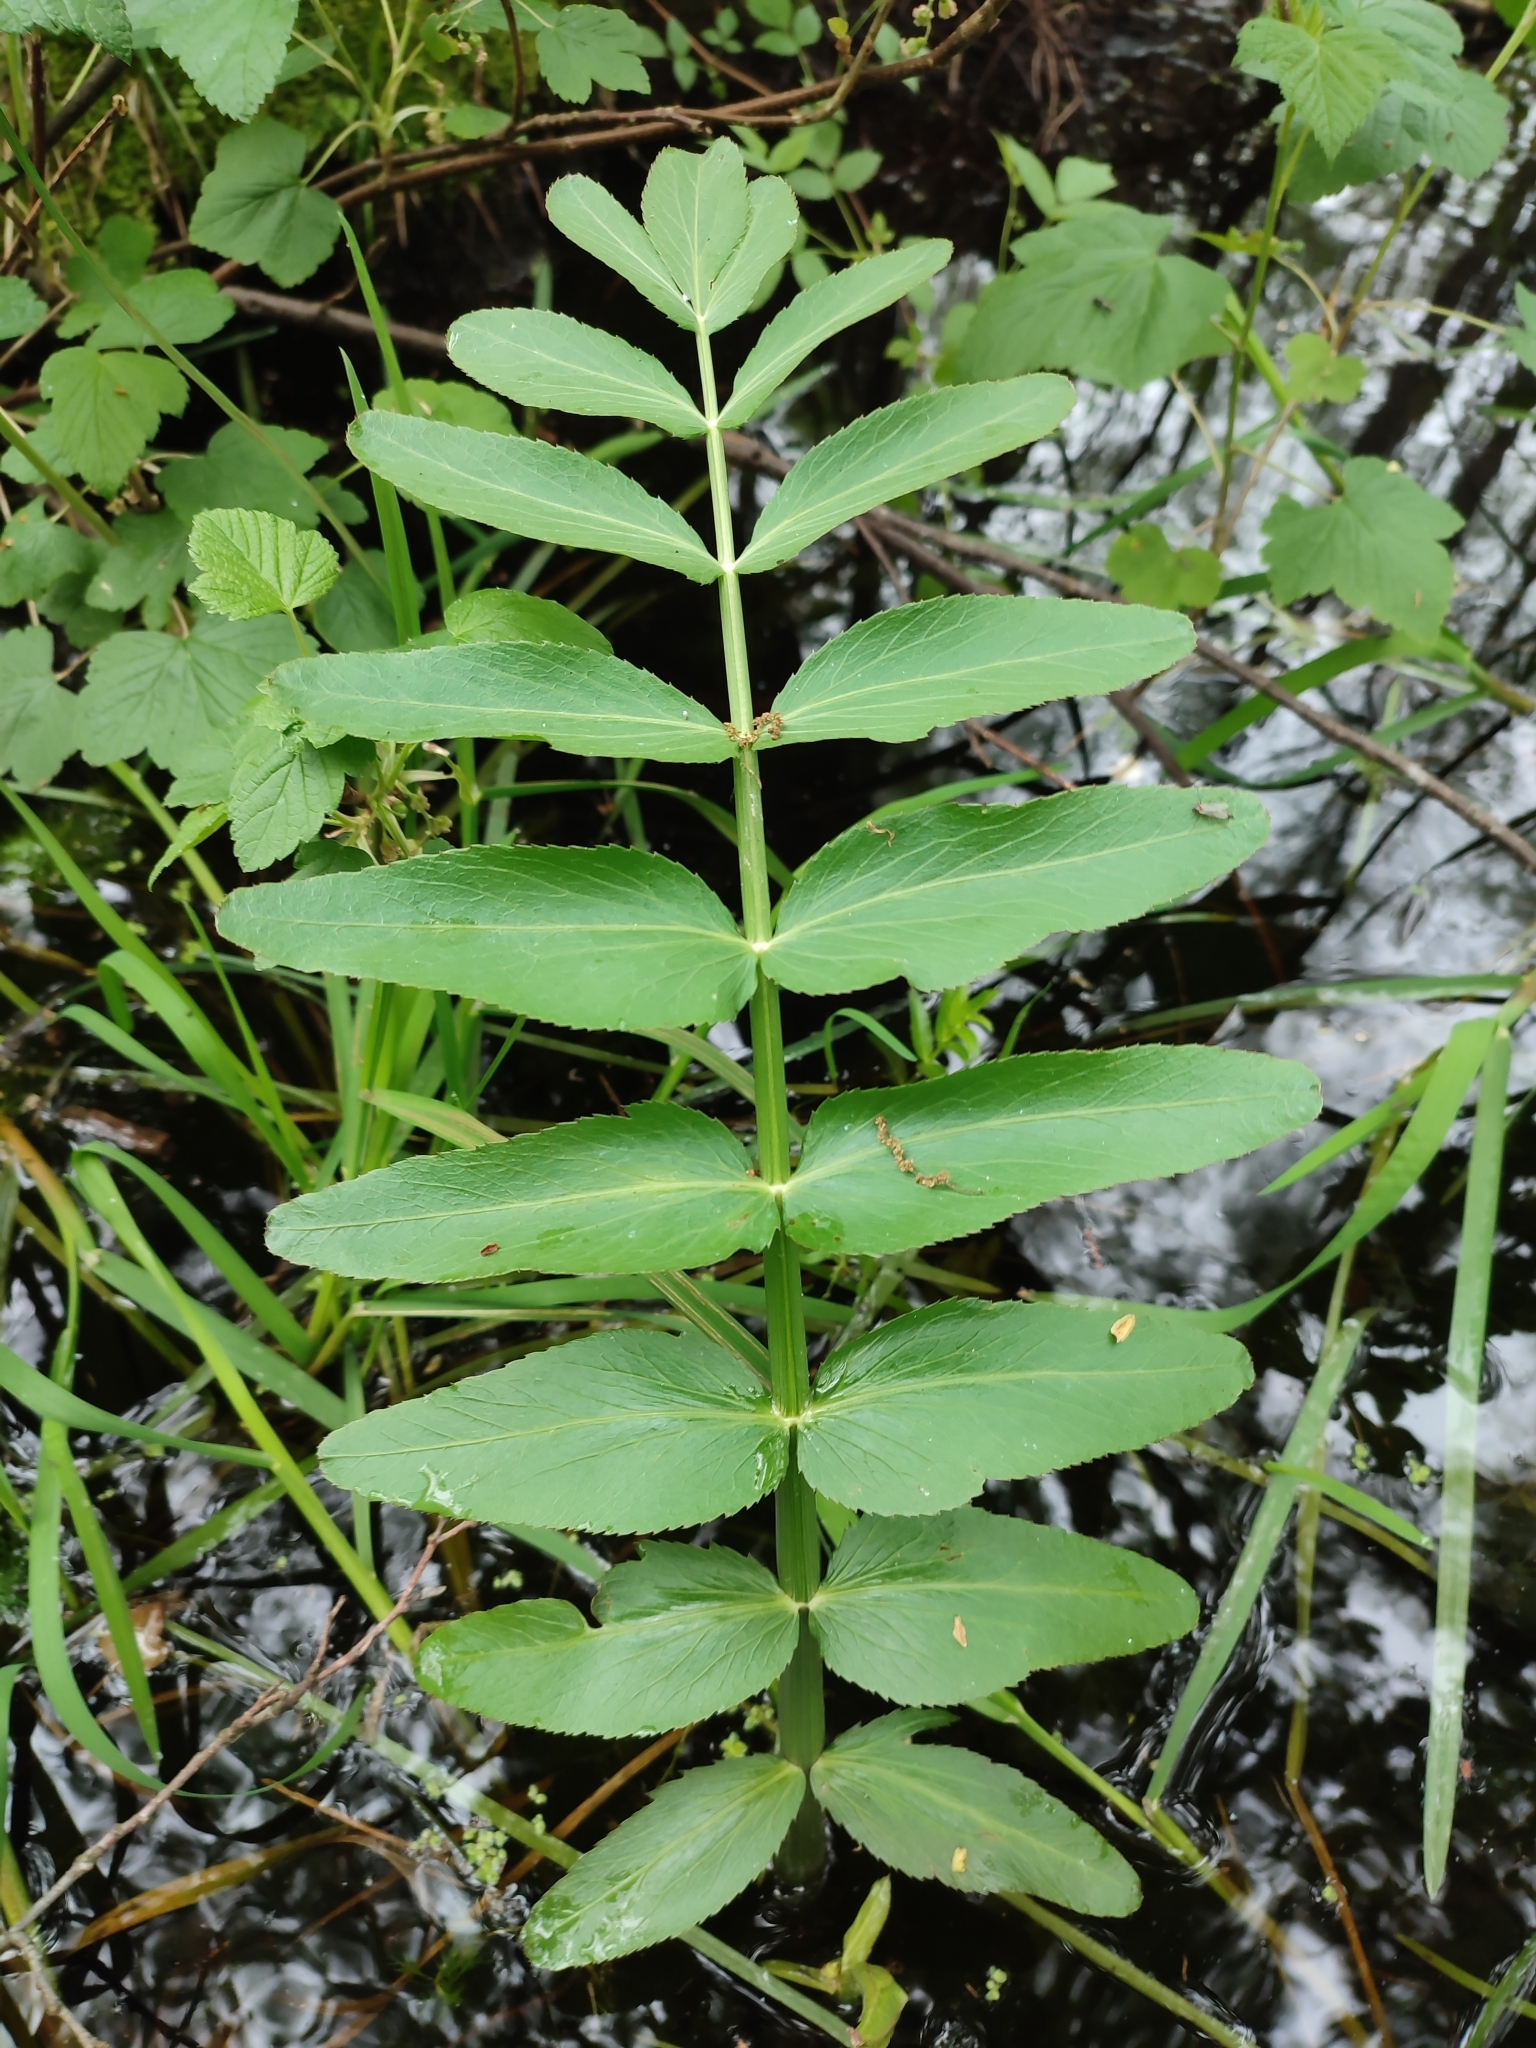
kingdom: Plantae
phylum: Tracheophyta
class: Magnoliopsida
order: Apiales
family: Apiaceae
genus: Sium
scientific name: Sium latifolium
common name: Greater water-parsnip
